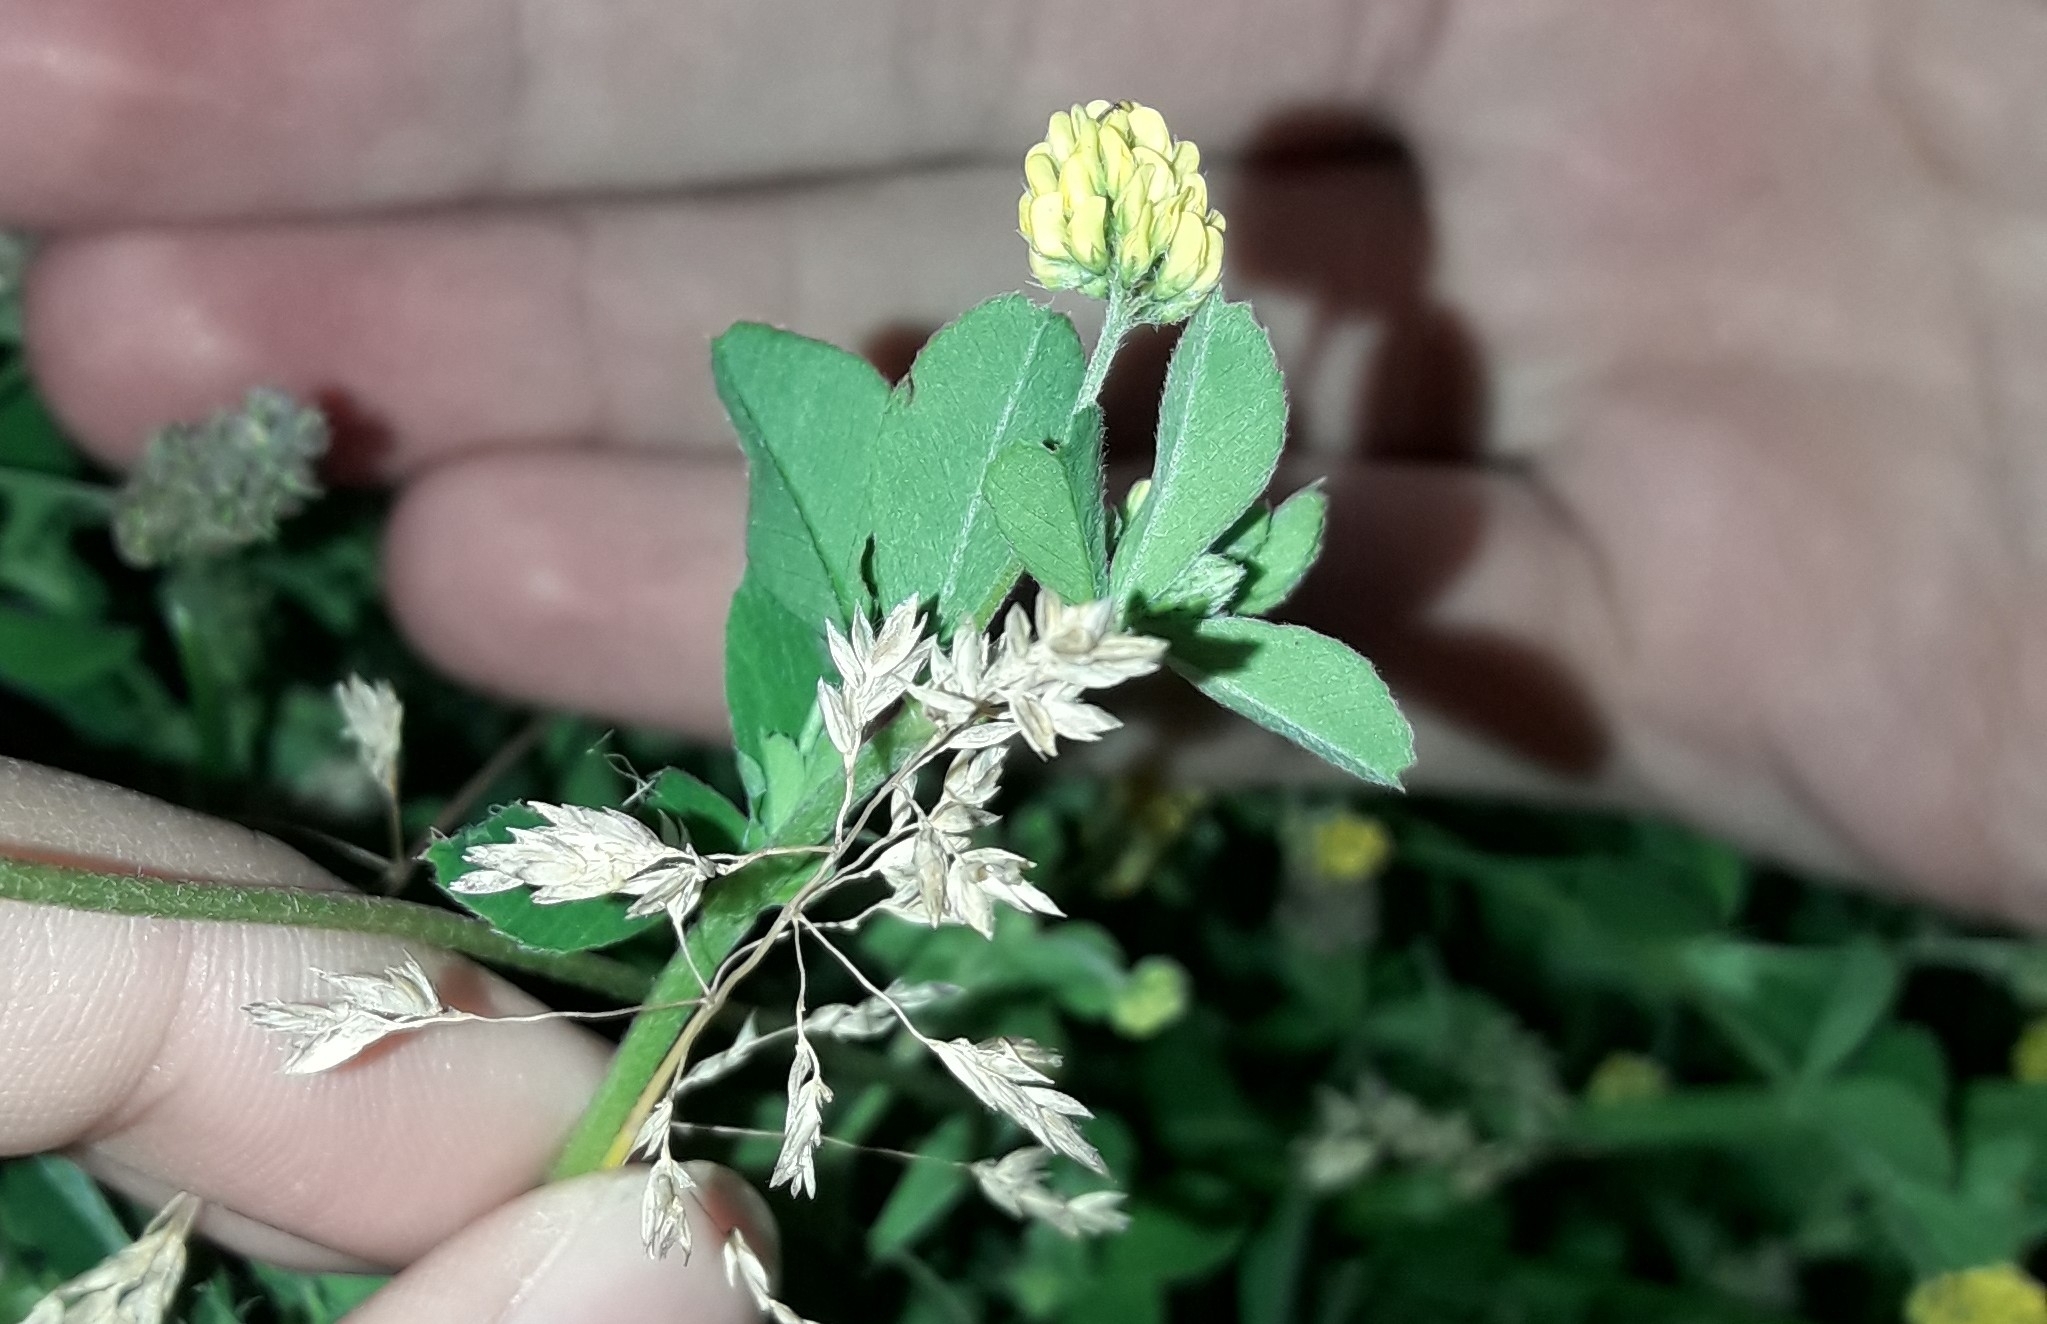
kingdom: Plantae
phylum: Tracheophyta
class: Magnoliopsida
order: Fabales
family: Fabaceae
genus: Medicago
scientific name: Medicago lupulina
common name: Black medick
